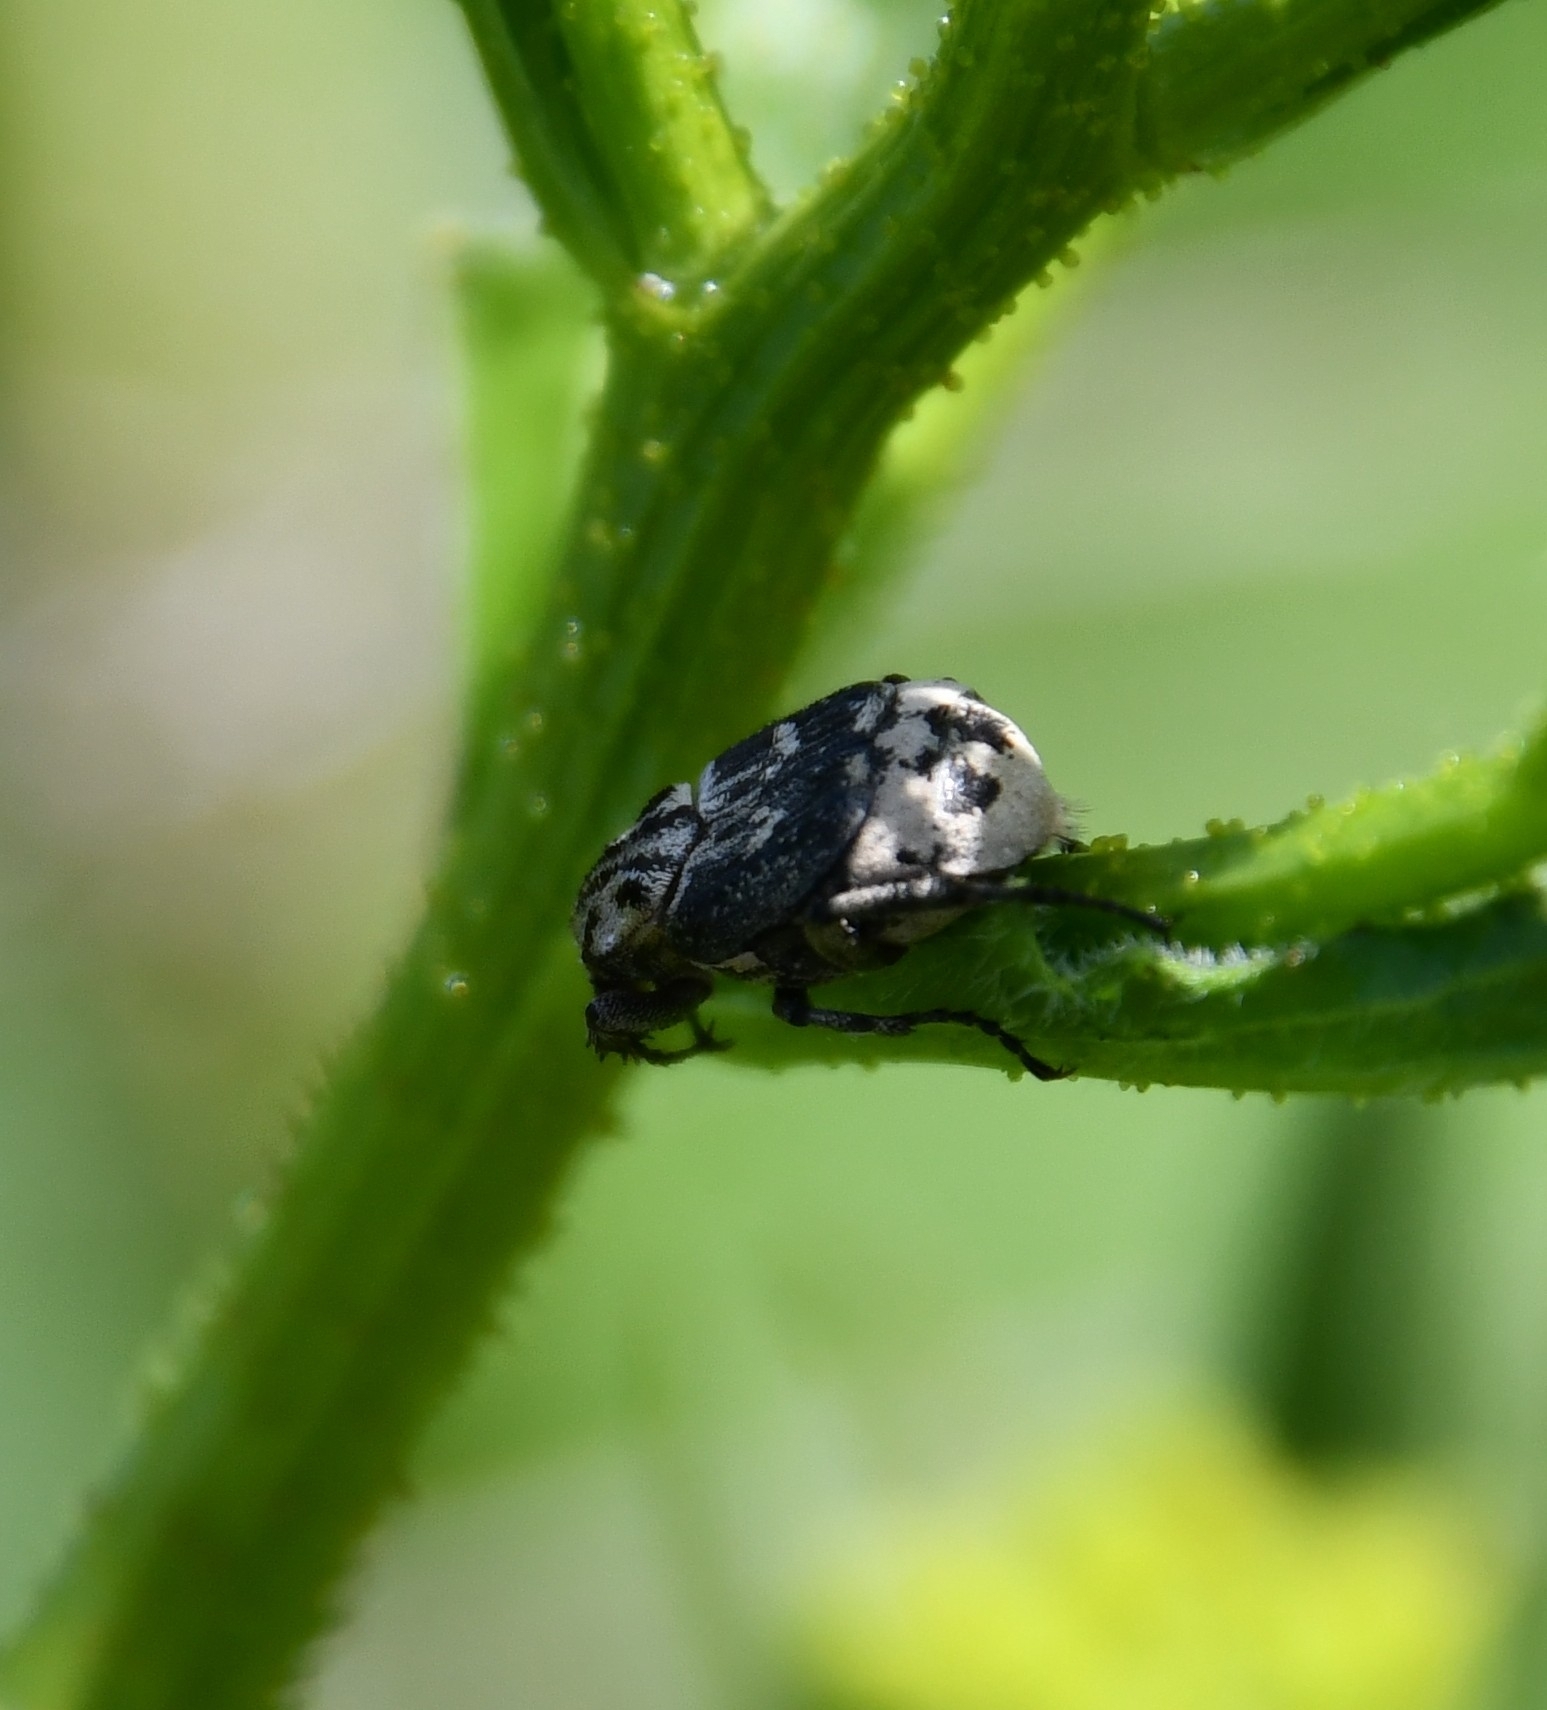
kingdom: Animalia
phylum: Arthropoda
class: Insecta
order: Coleoptera
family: Scarabaeidae
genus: Valgus
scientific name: Valgus hemipterus
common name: Bug flower chafer
